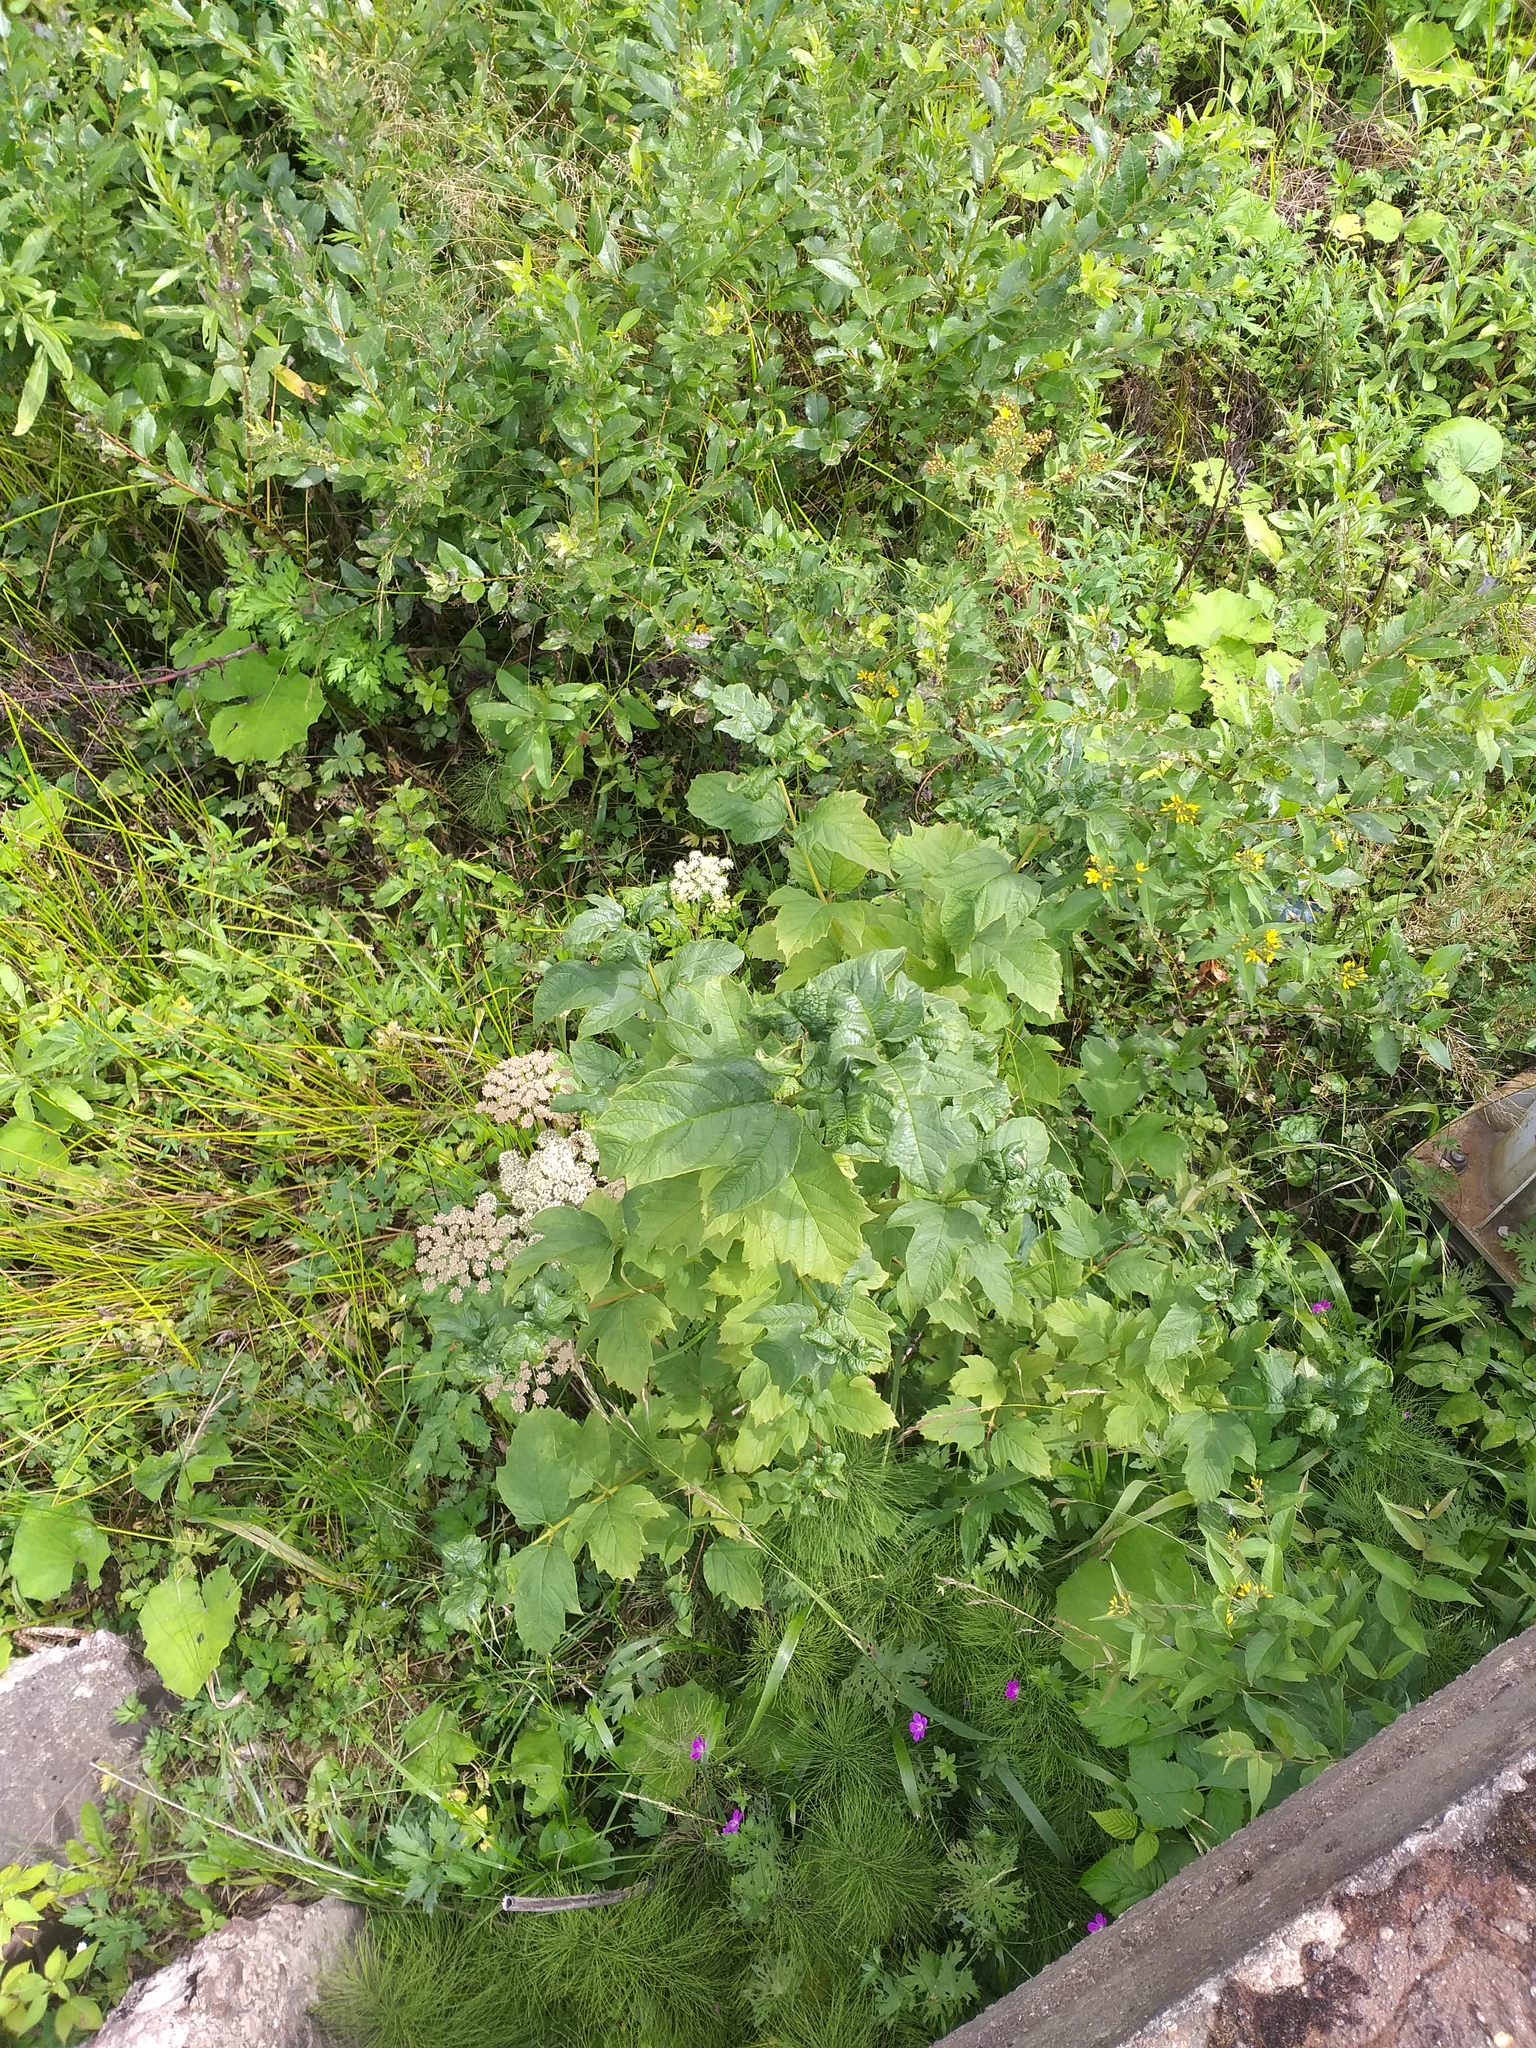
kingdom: Plantae
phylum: Tracheophyta
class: Magnoliopsida
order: Dipsacales
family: Viburnaceae
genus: Viburnum
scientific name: Viburnum opulus
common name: Guelder-rose
